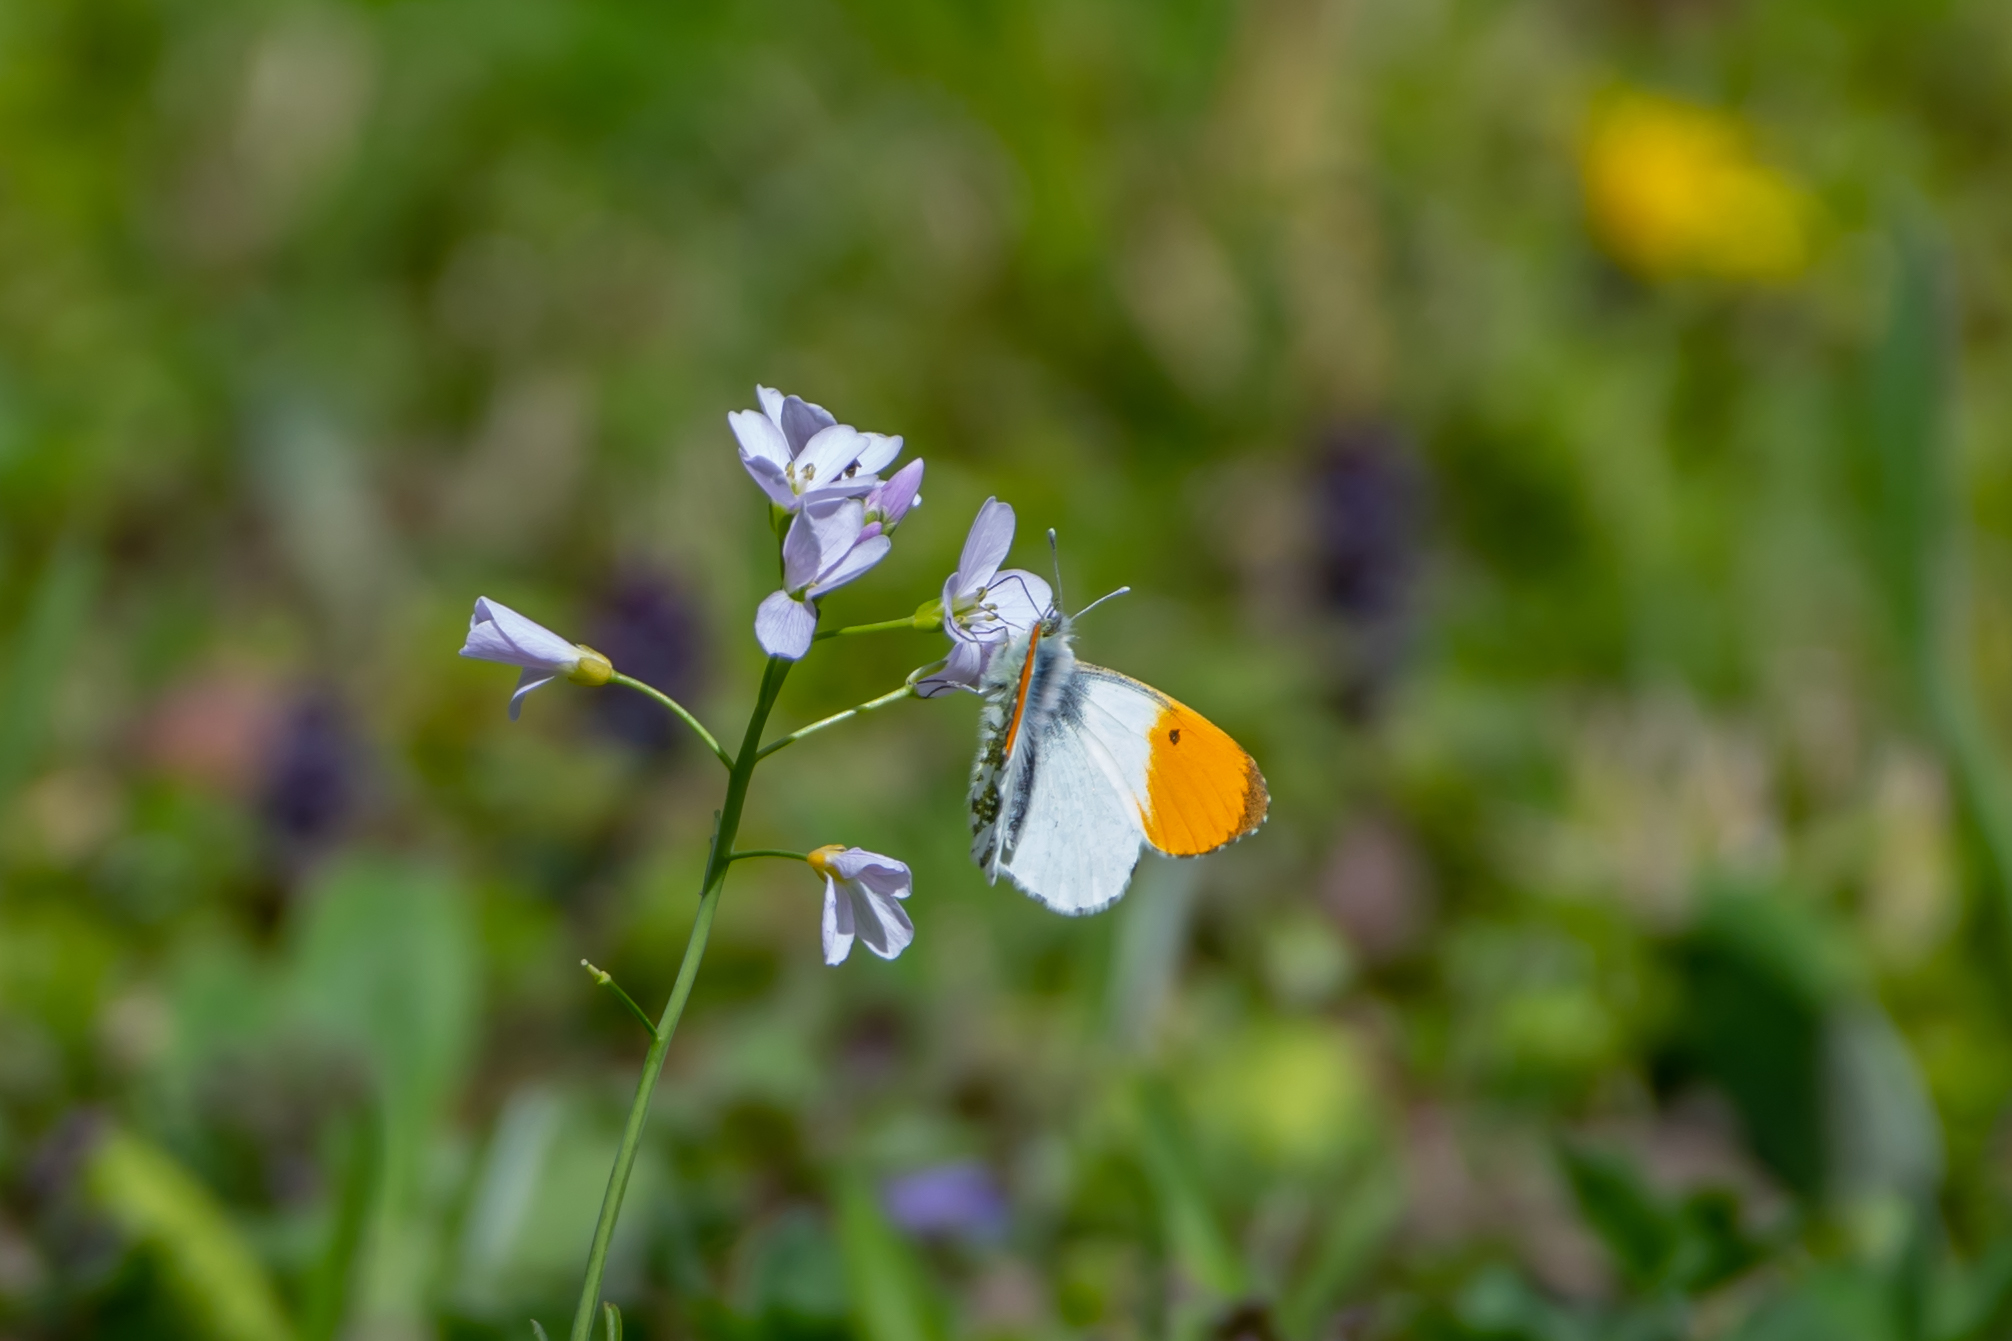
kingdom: Animalia
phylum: Arthropoda
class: Insecta
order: Lepidoptera
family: Pieridae
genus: Anthocharis
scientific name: Anthocharis cardamines
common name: Orange-tip
